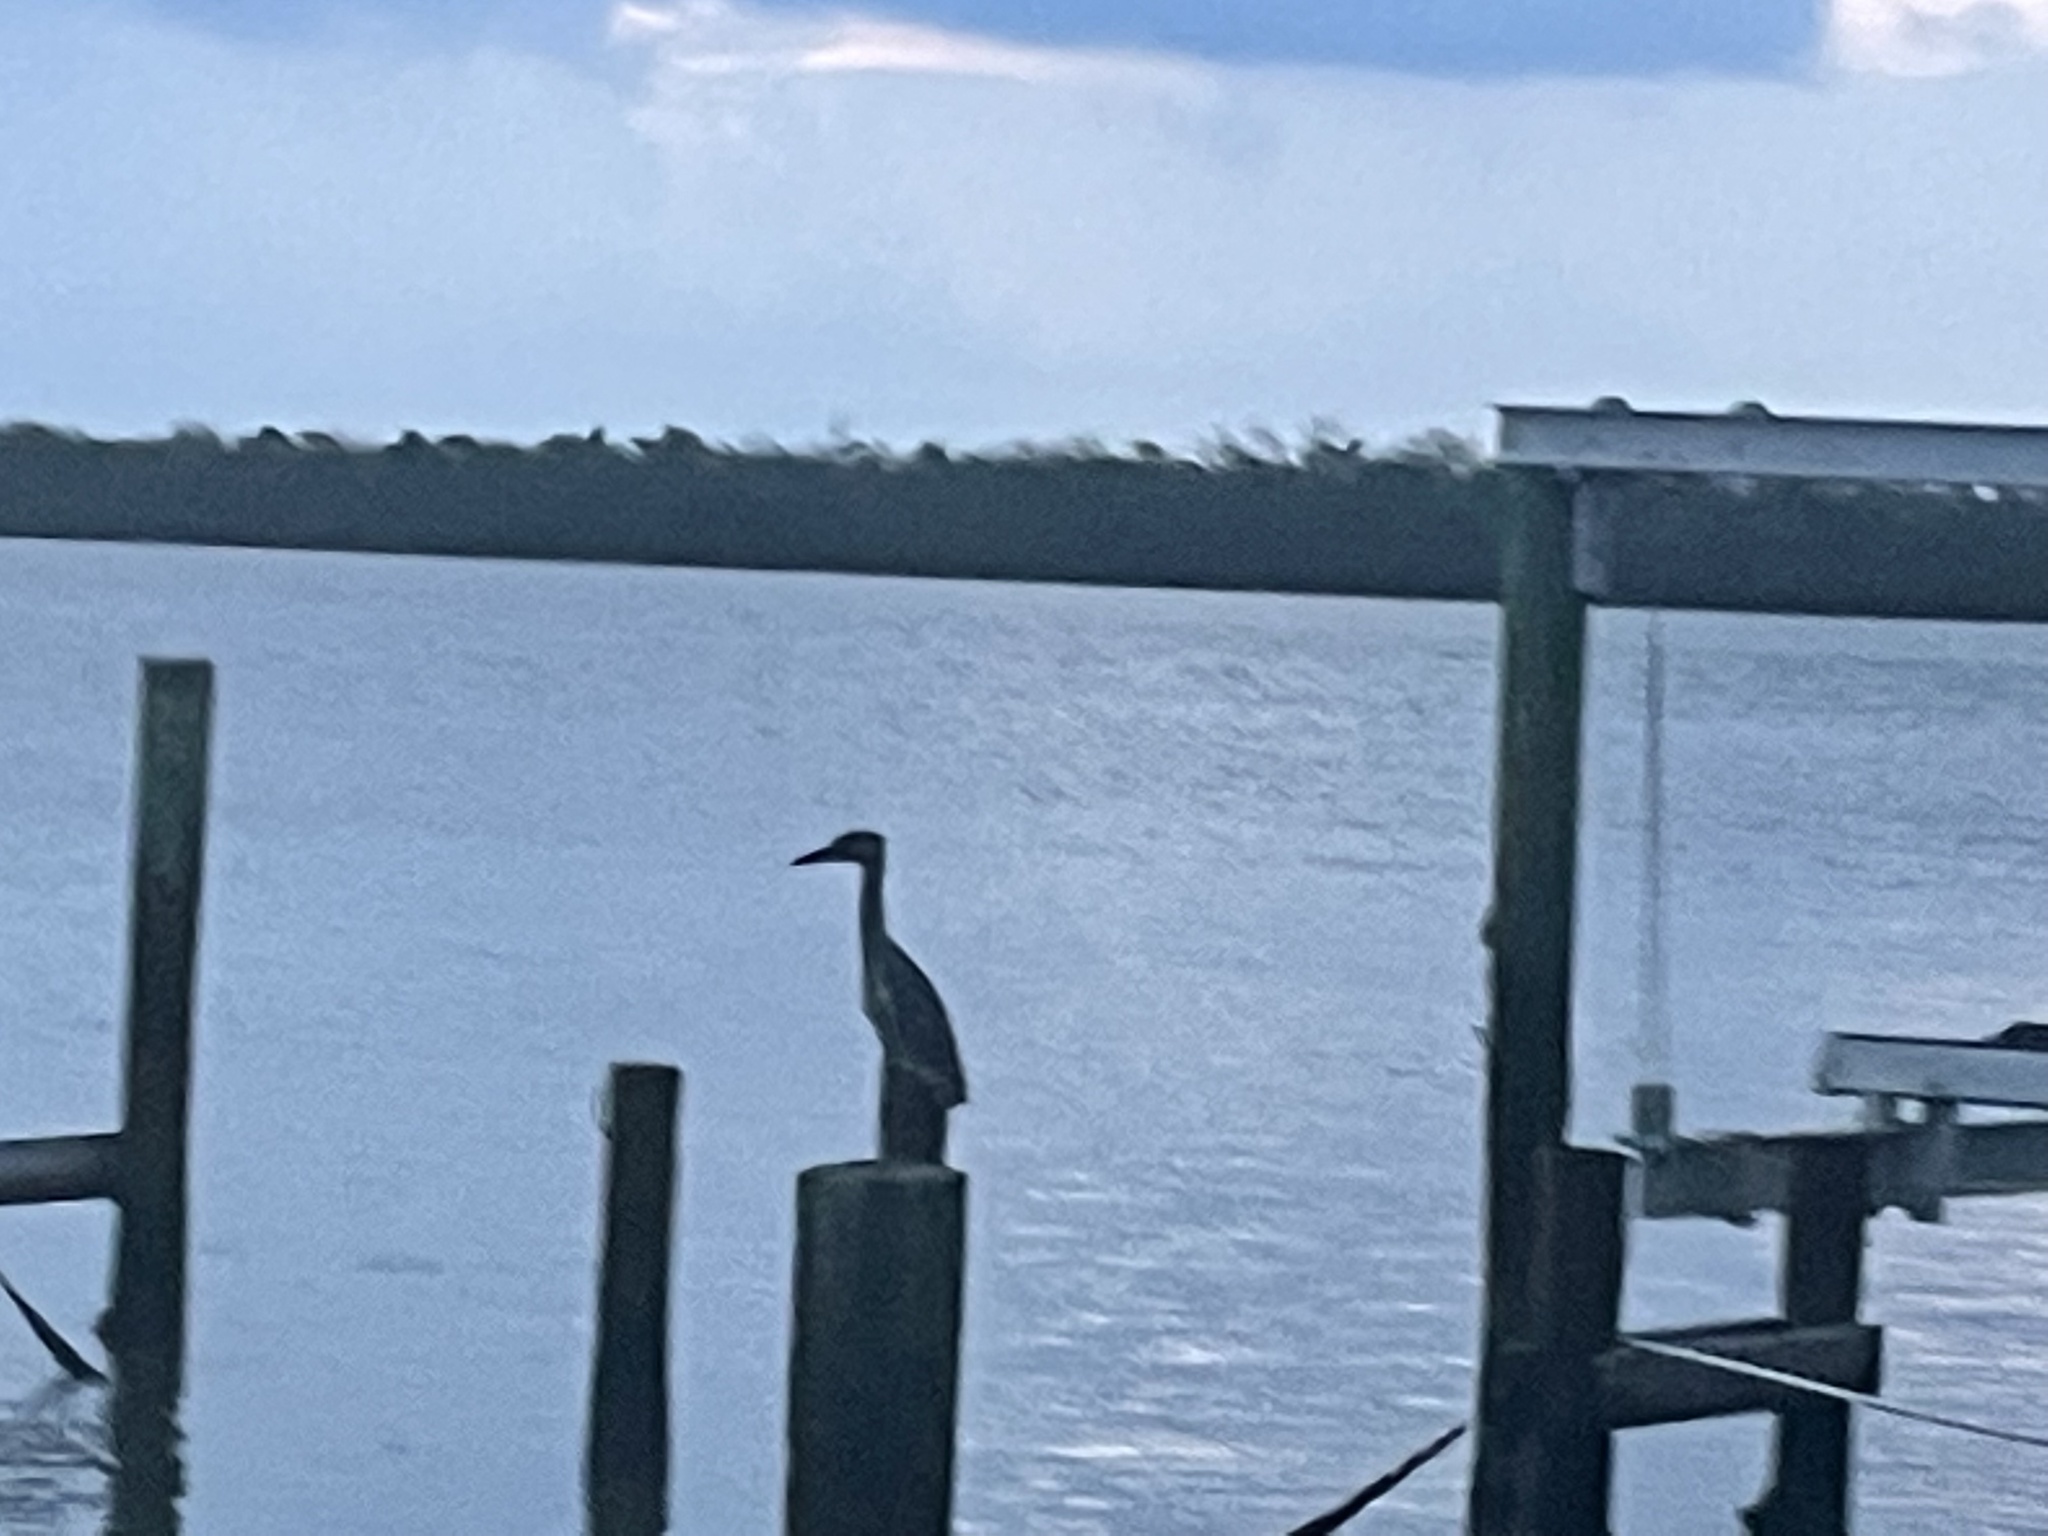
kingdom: Animalia
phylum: Chordata
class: Aves
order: Pelecaniformes
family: Ardeidae
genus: Nyctanassa
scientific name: Nyctanassa violacea
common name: Yellow-crowned night heron
